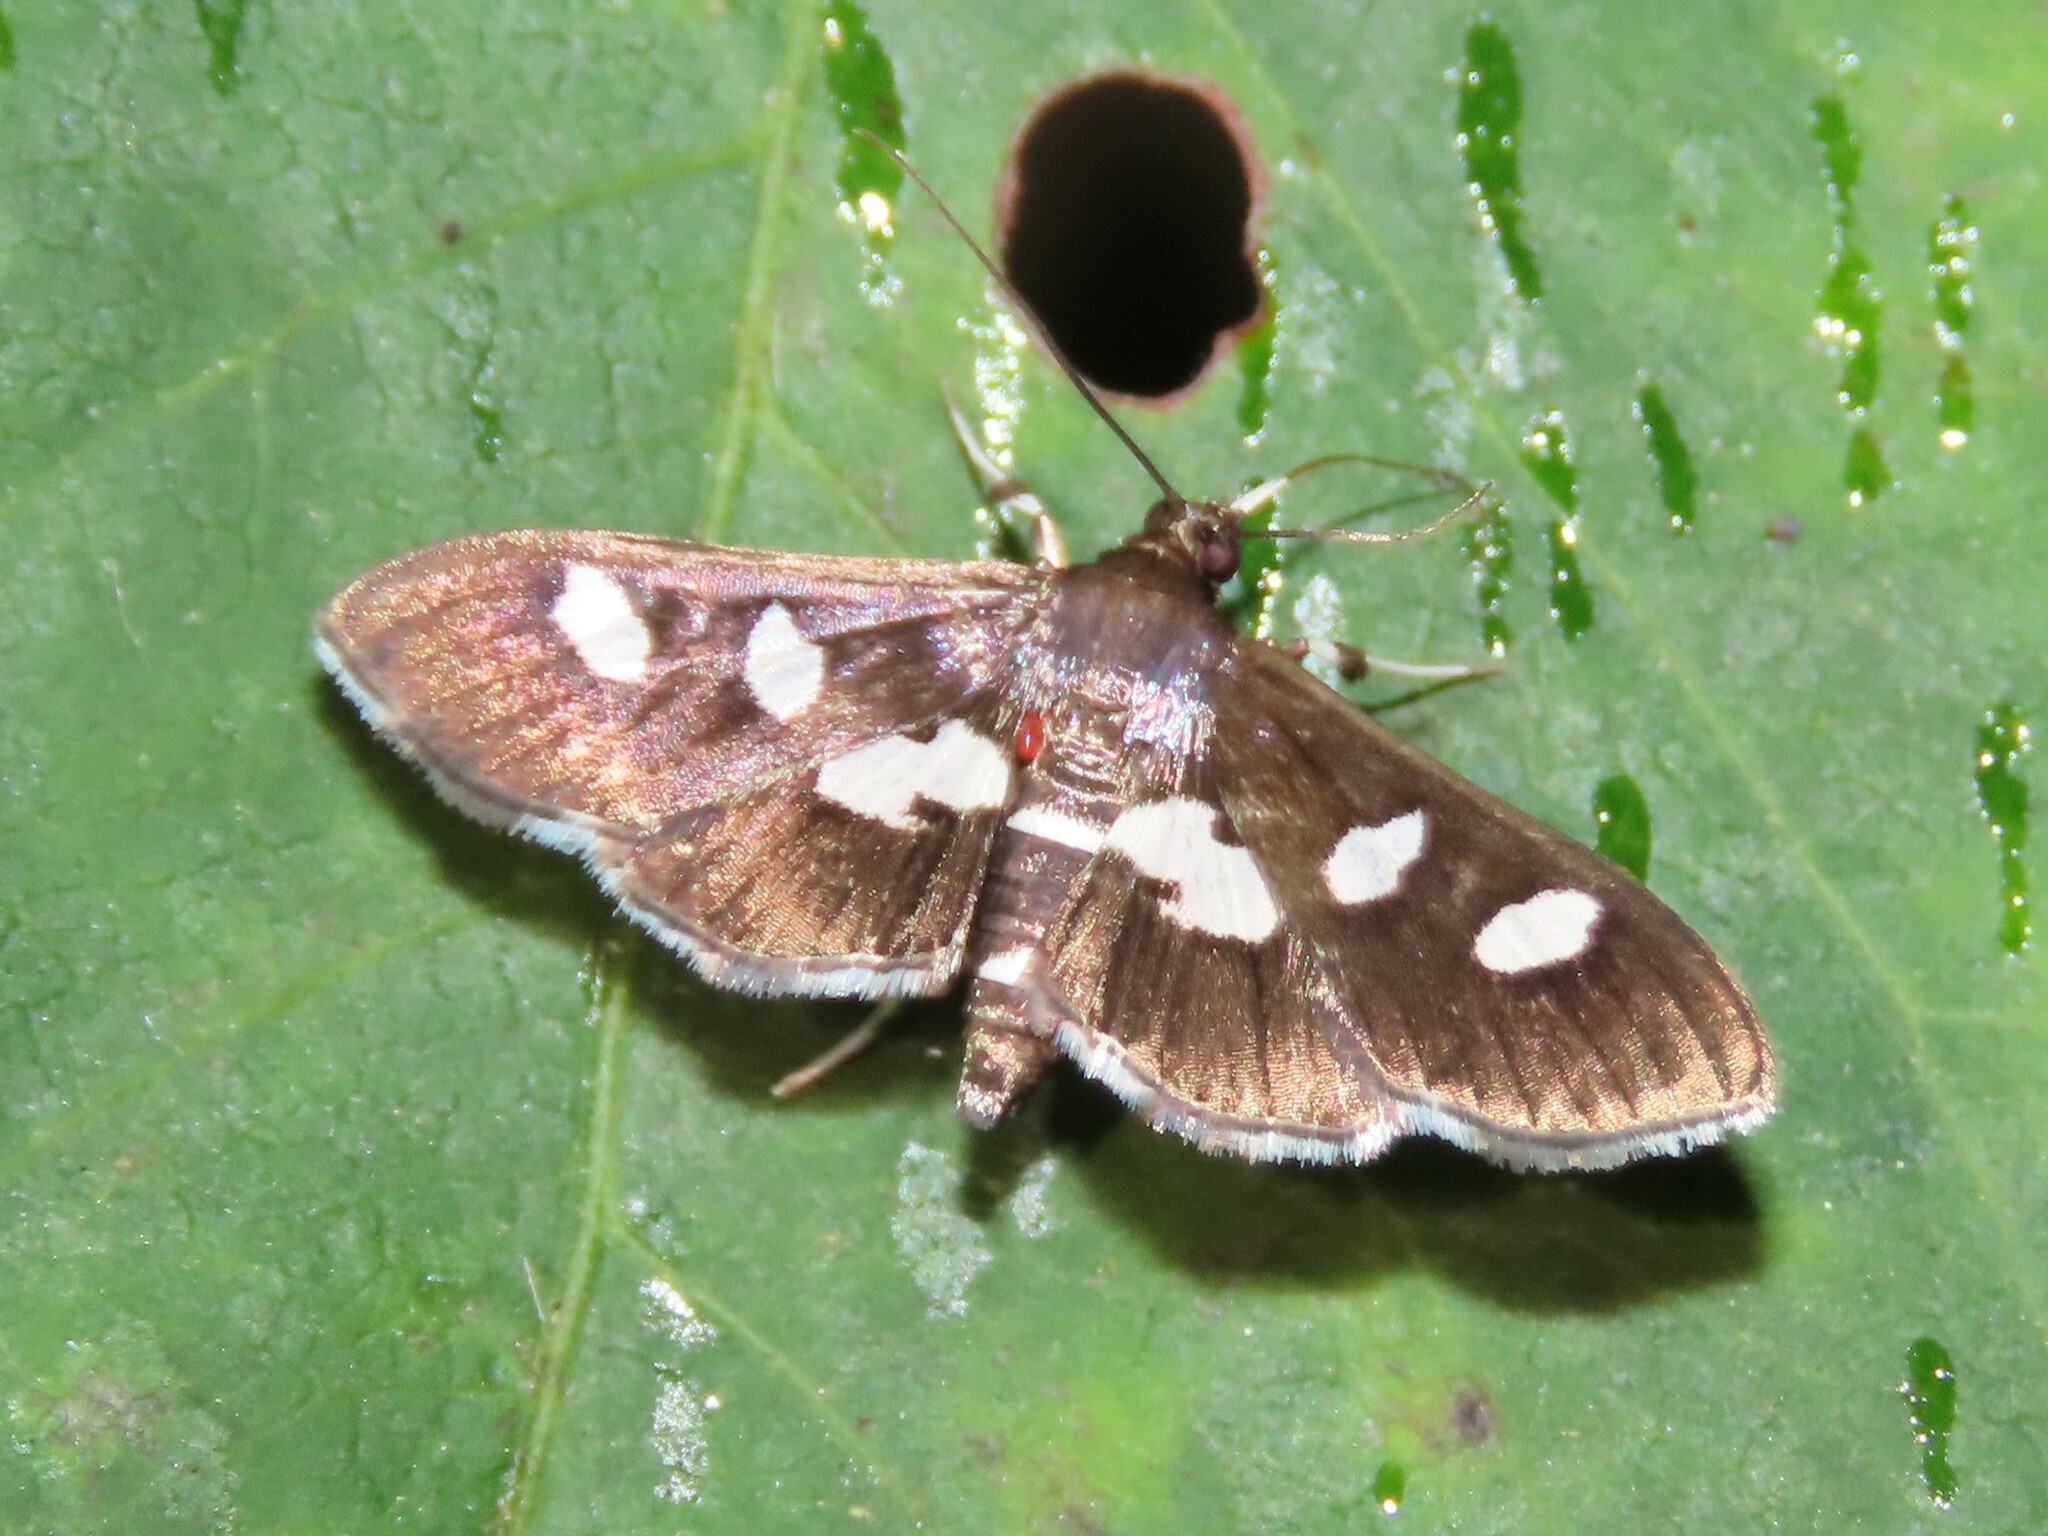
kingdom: Animalia
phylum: Arthropoda
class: Insecta
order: Lepidoptera
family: Crambidae
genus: Desmia
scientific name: Desmia
